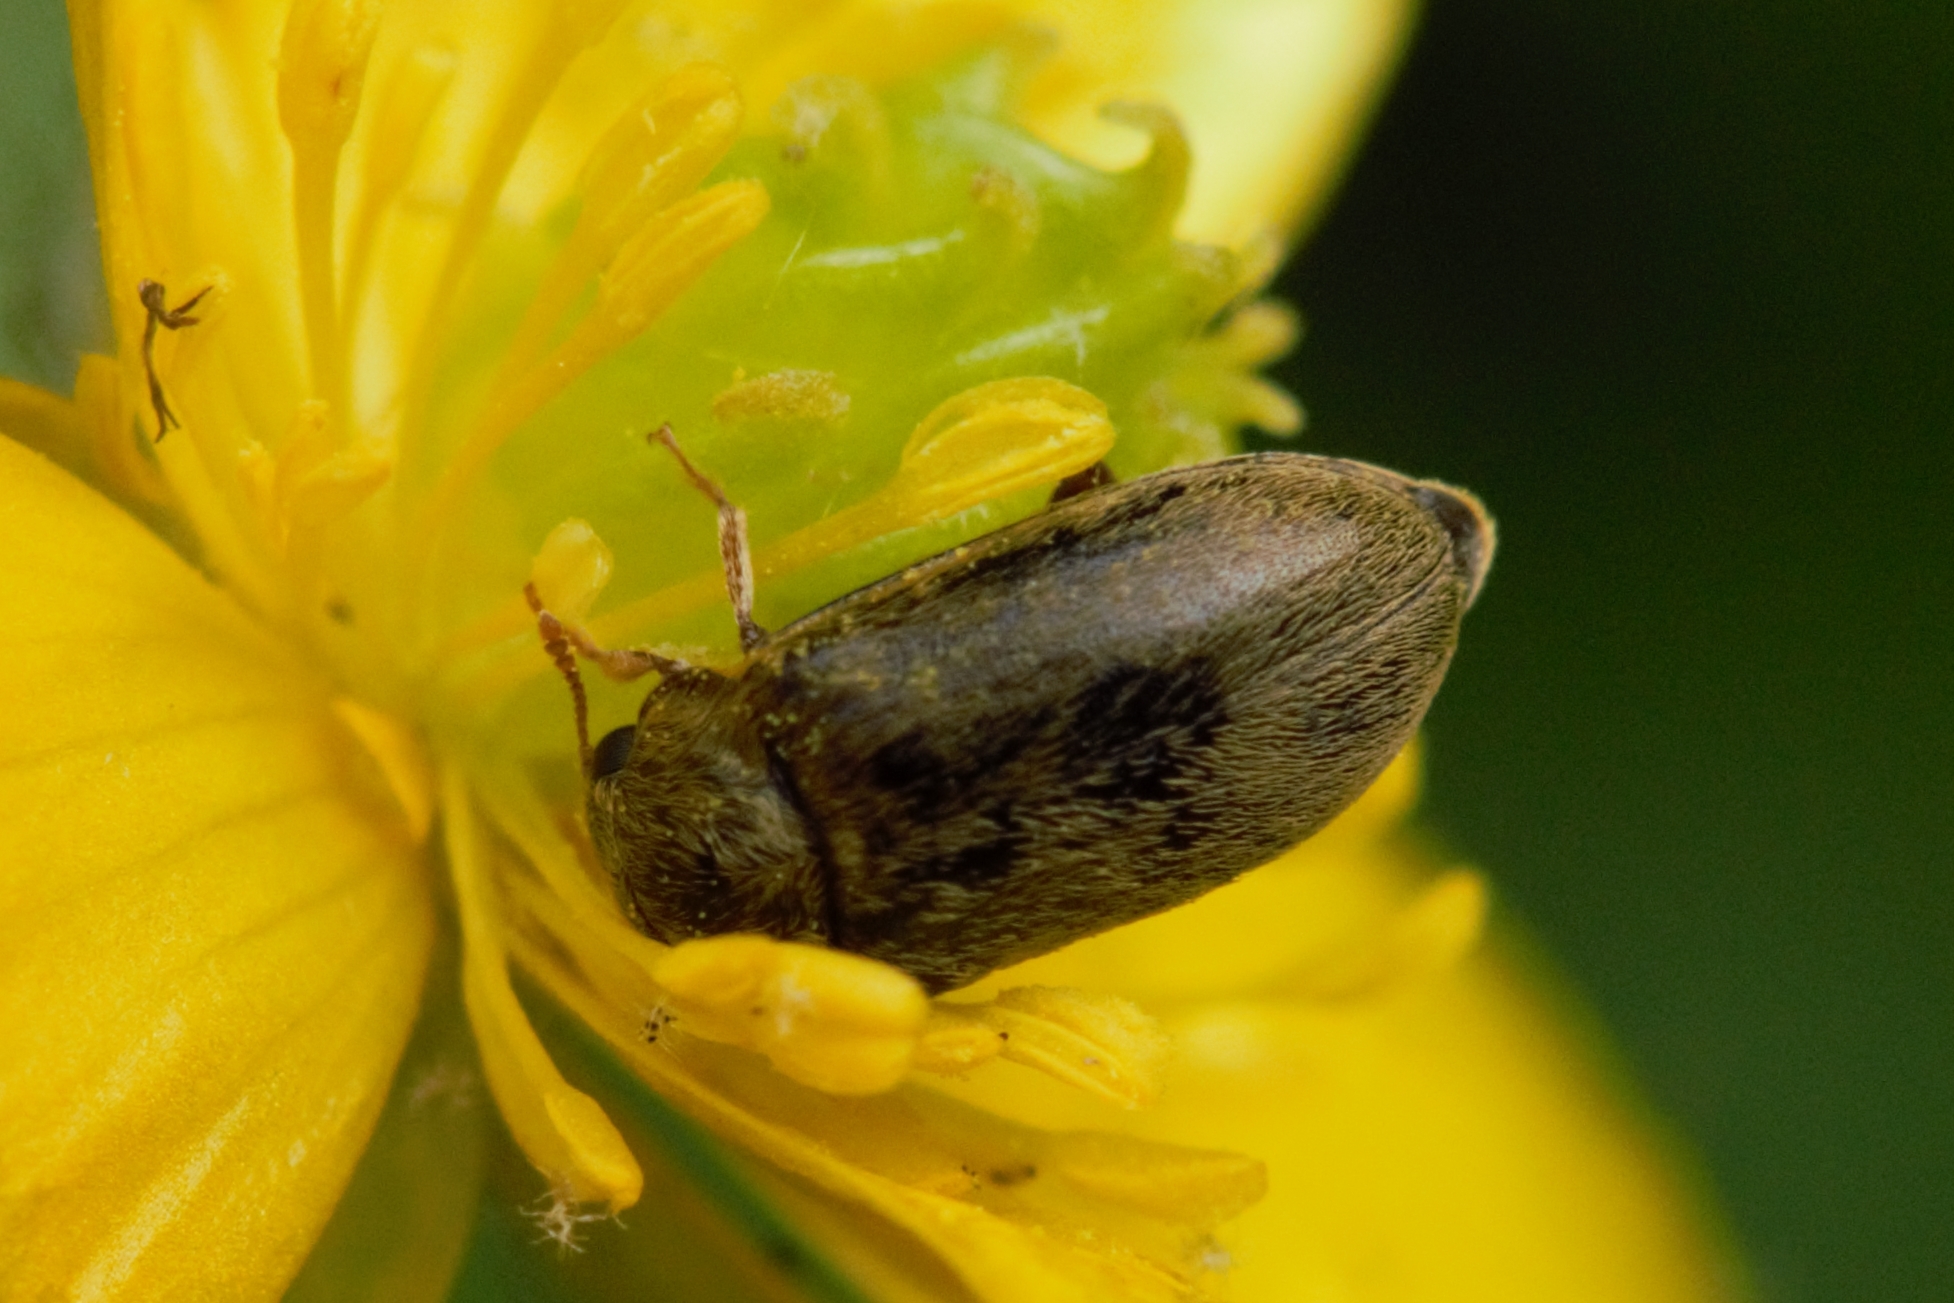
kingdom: Animalia
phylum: Arthropoda
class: Insecta
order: Coleoptera
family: Byturidae
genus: Byturus
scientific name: Byturus ochraceus
